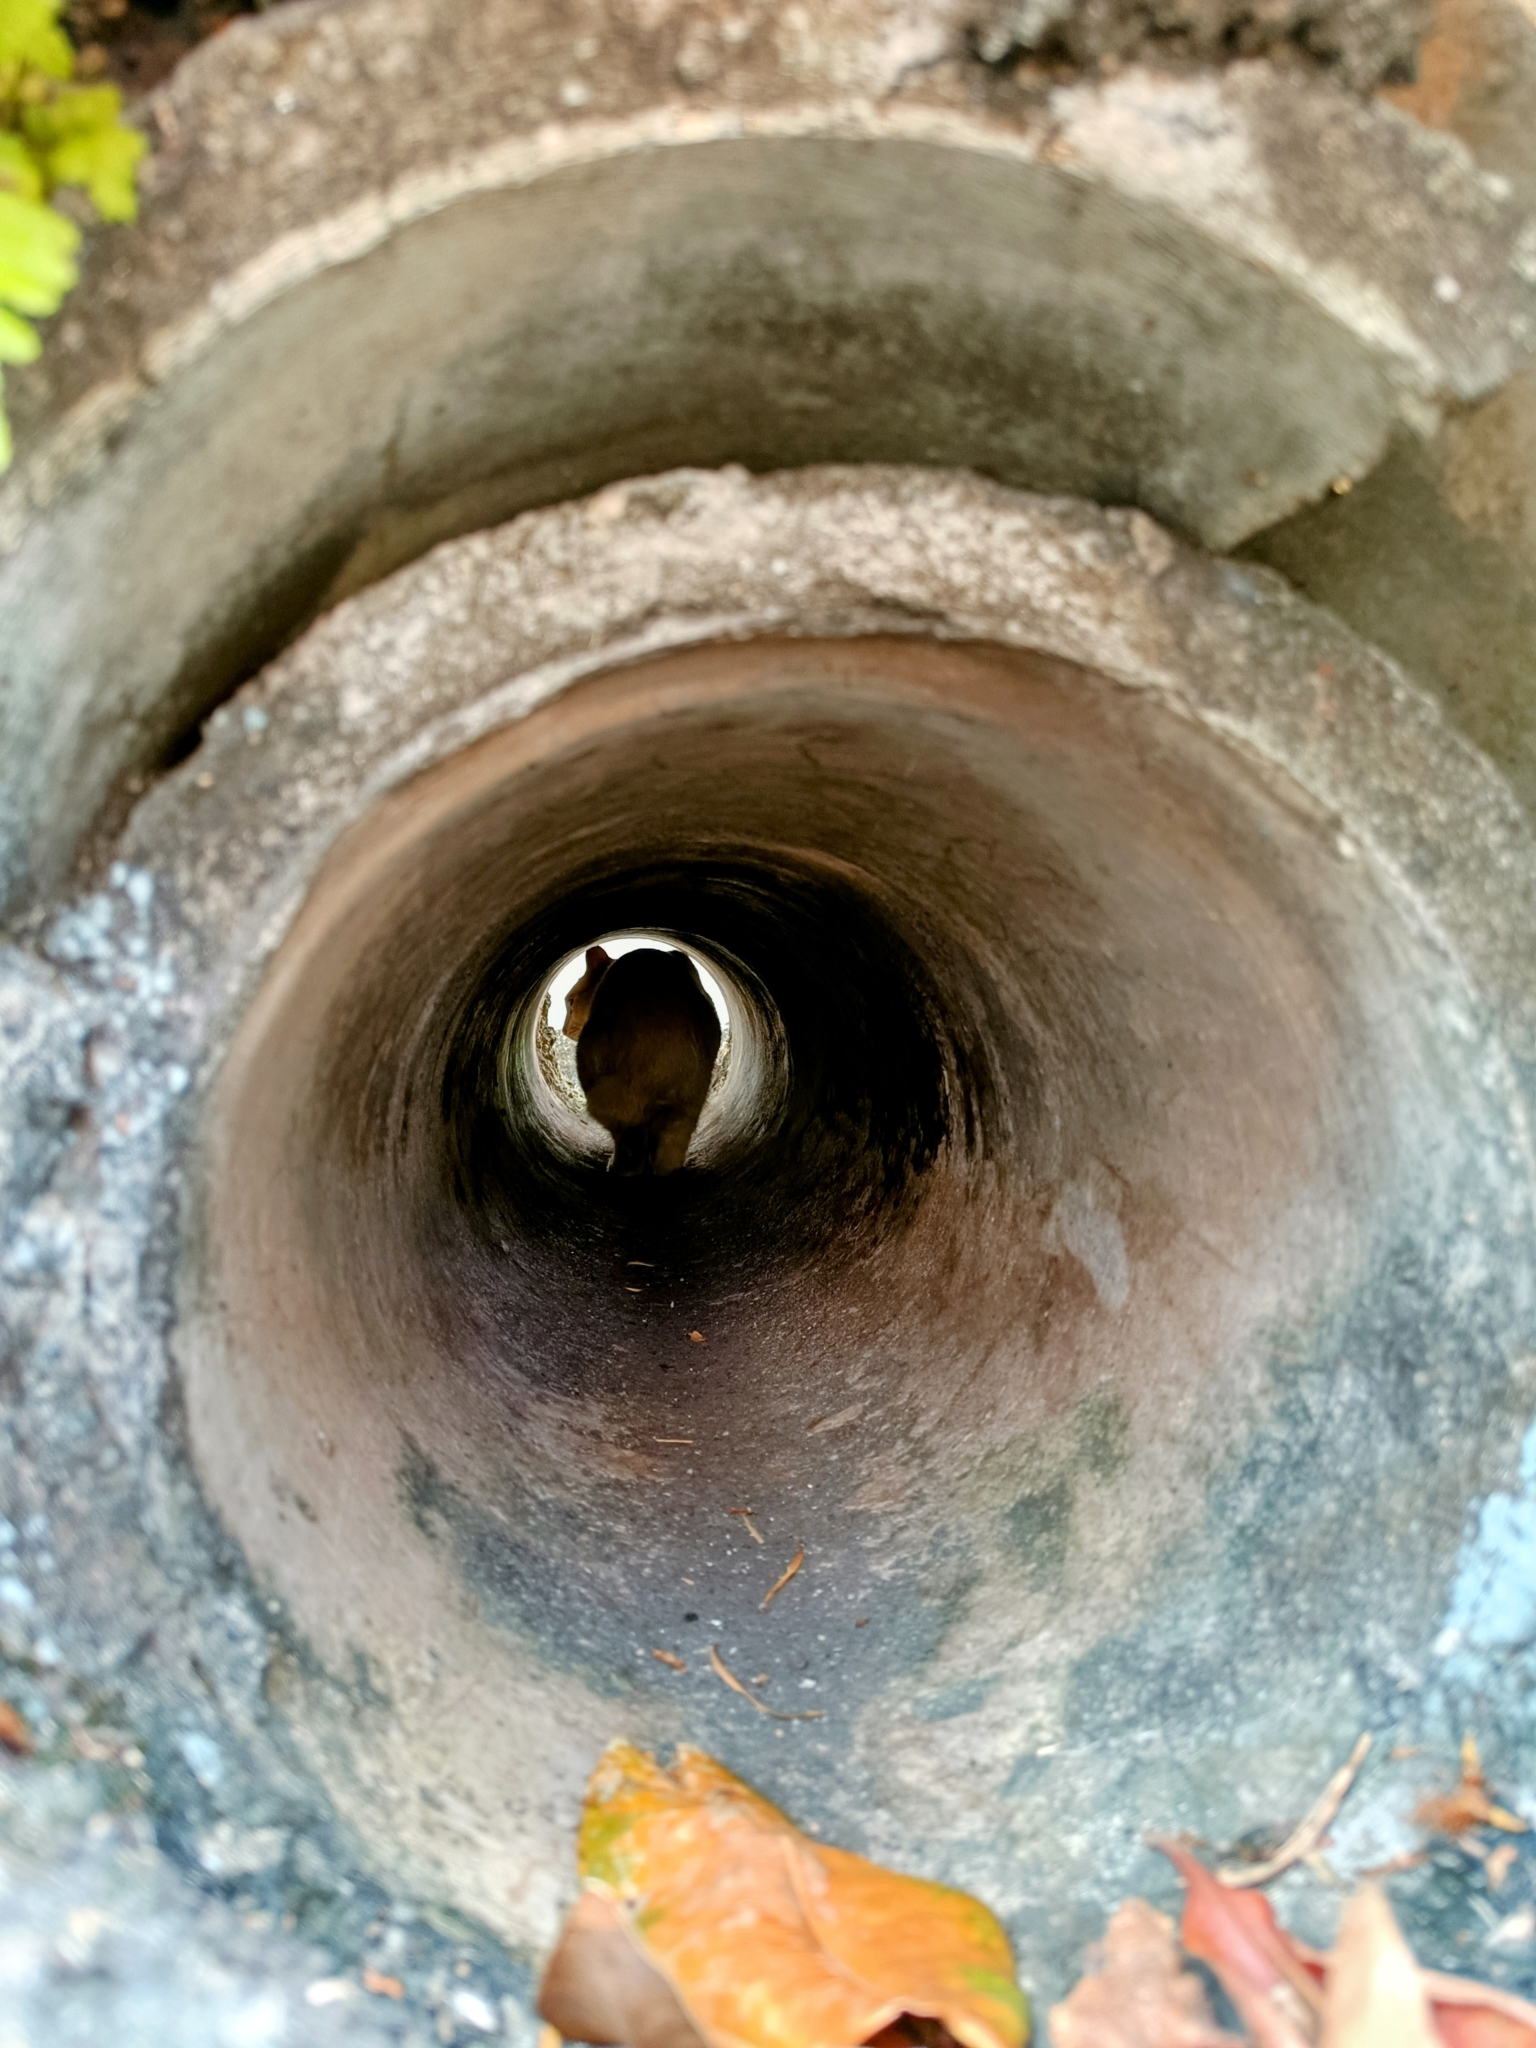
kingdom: Animalia
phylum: Chordata
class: Mammalia
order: Carnivora
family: Felidae
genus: Felis
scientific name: Felis catus
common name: Domestic cat
